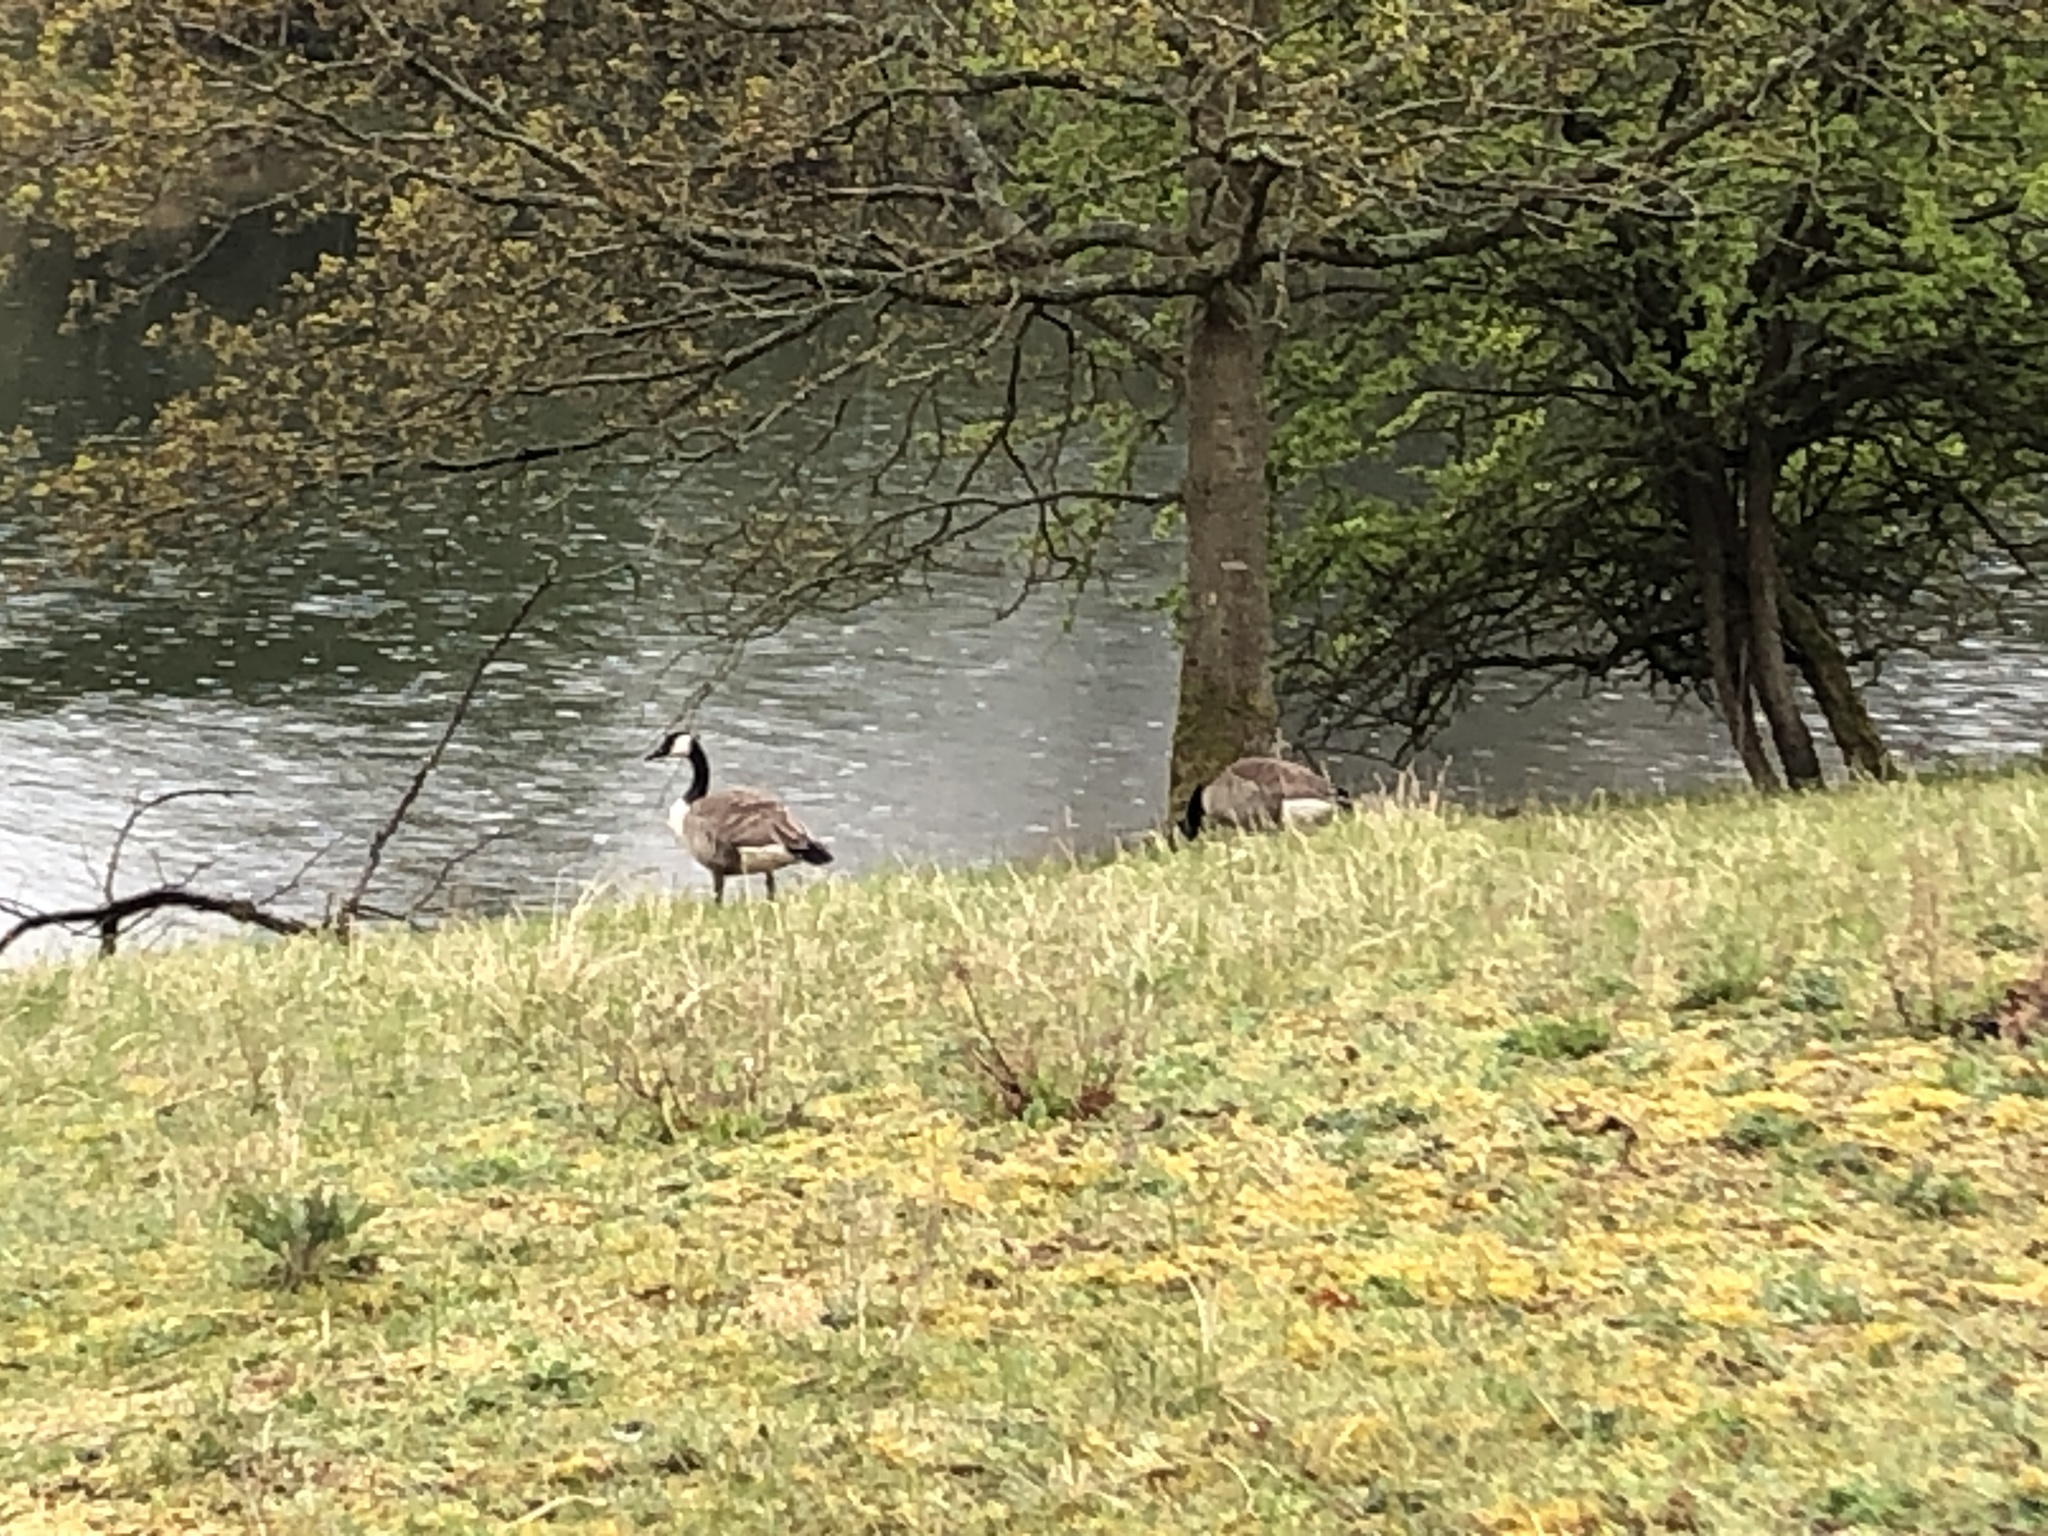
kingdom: Animalia
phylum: Chordata
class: Aves
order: Anseriformes
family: Anatidae
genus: Branta
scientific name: Branta canadensis
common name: Canada goose
